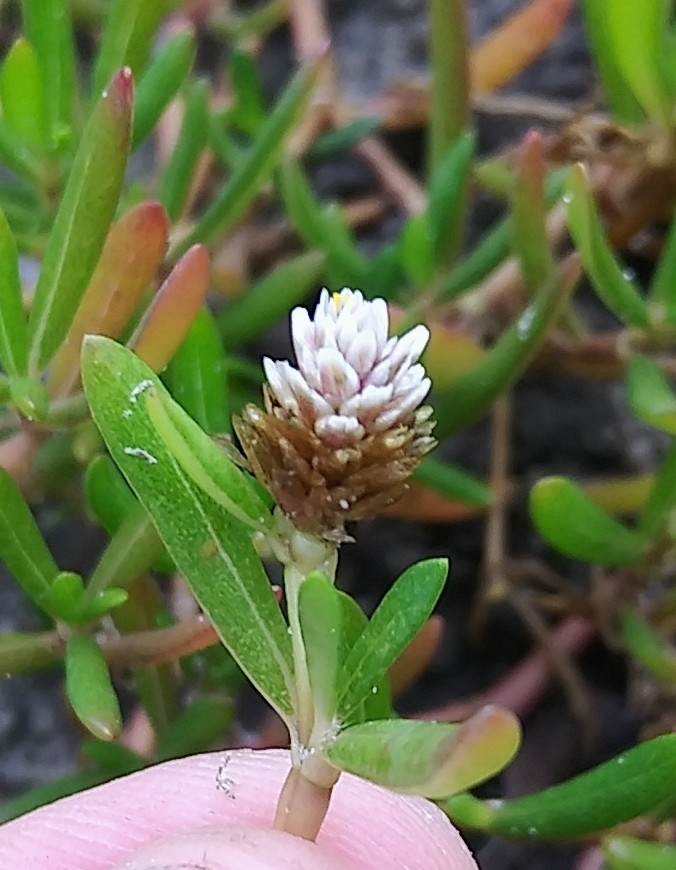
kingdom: Plantae
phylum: Tracheophyta
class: Magnoliopsida
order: Caryophyllales
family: Amaranthaceae
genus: Gomphrena
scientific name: Gomphrena vermicularis
